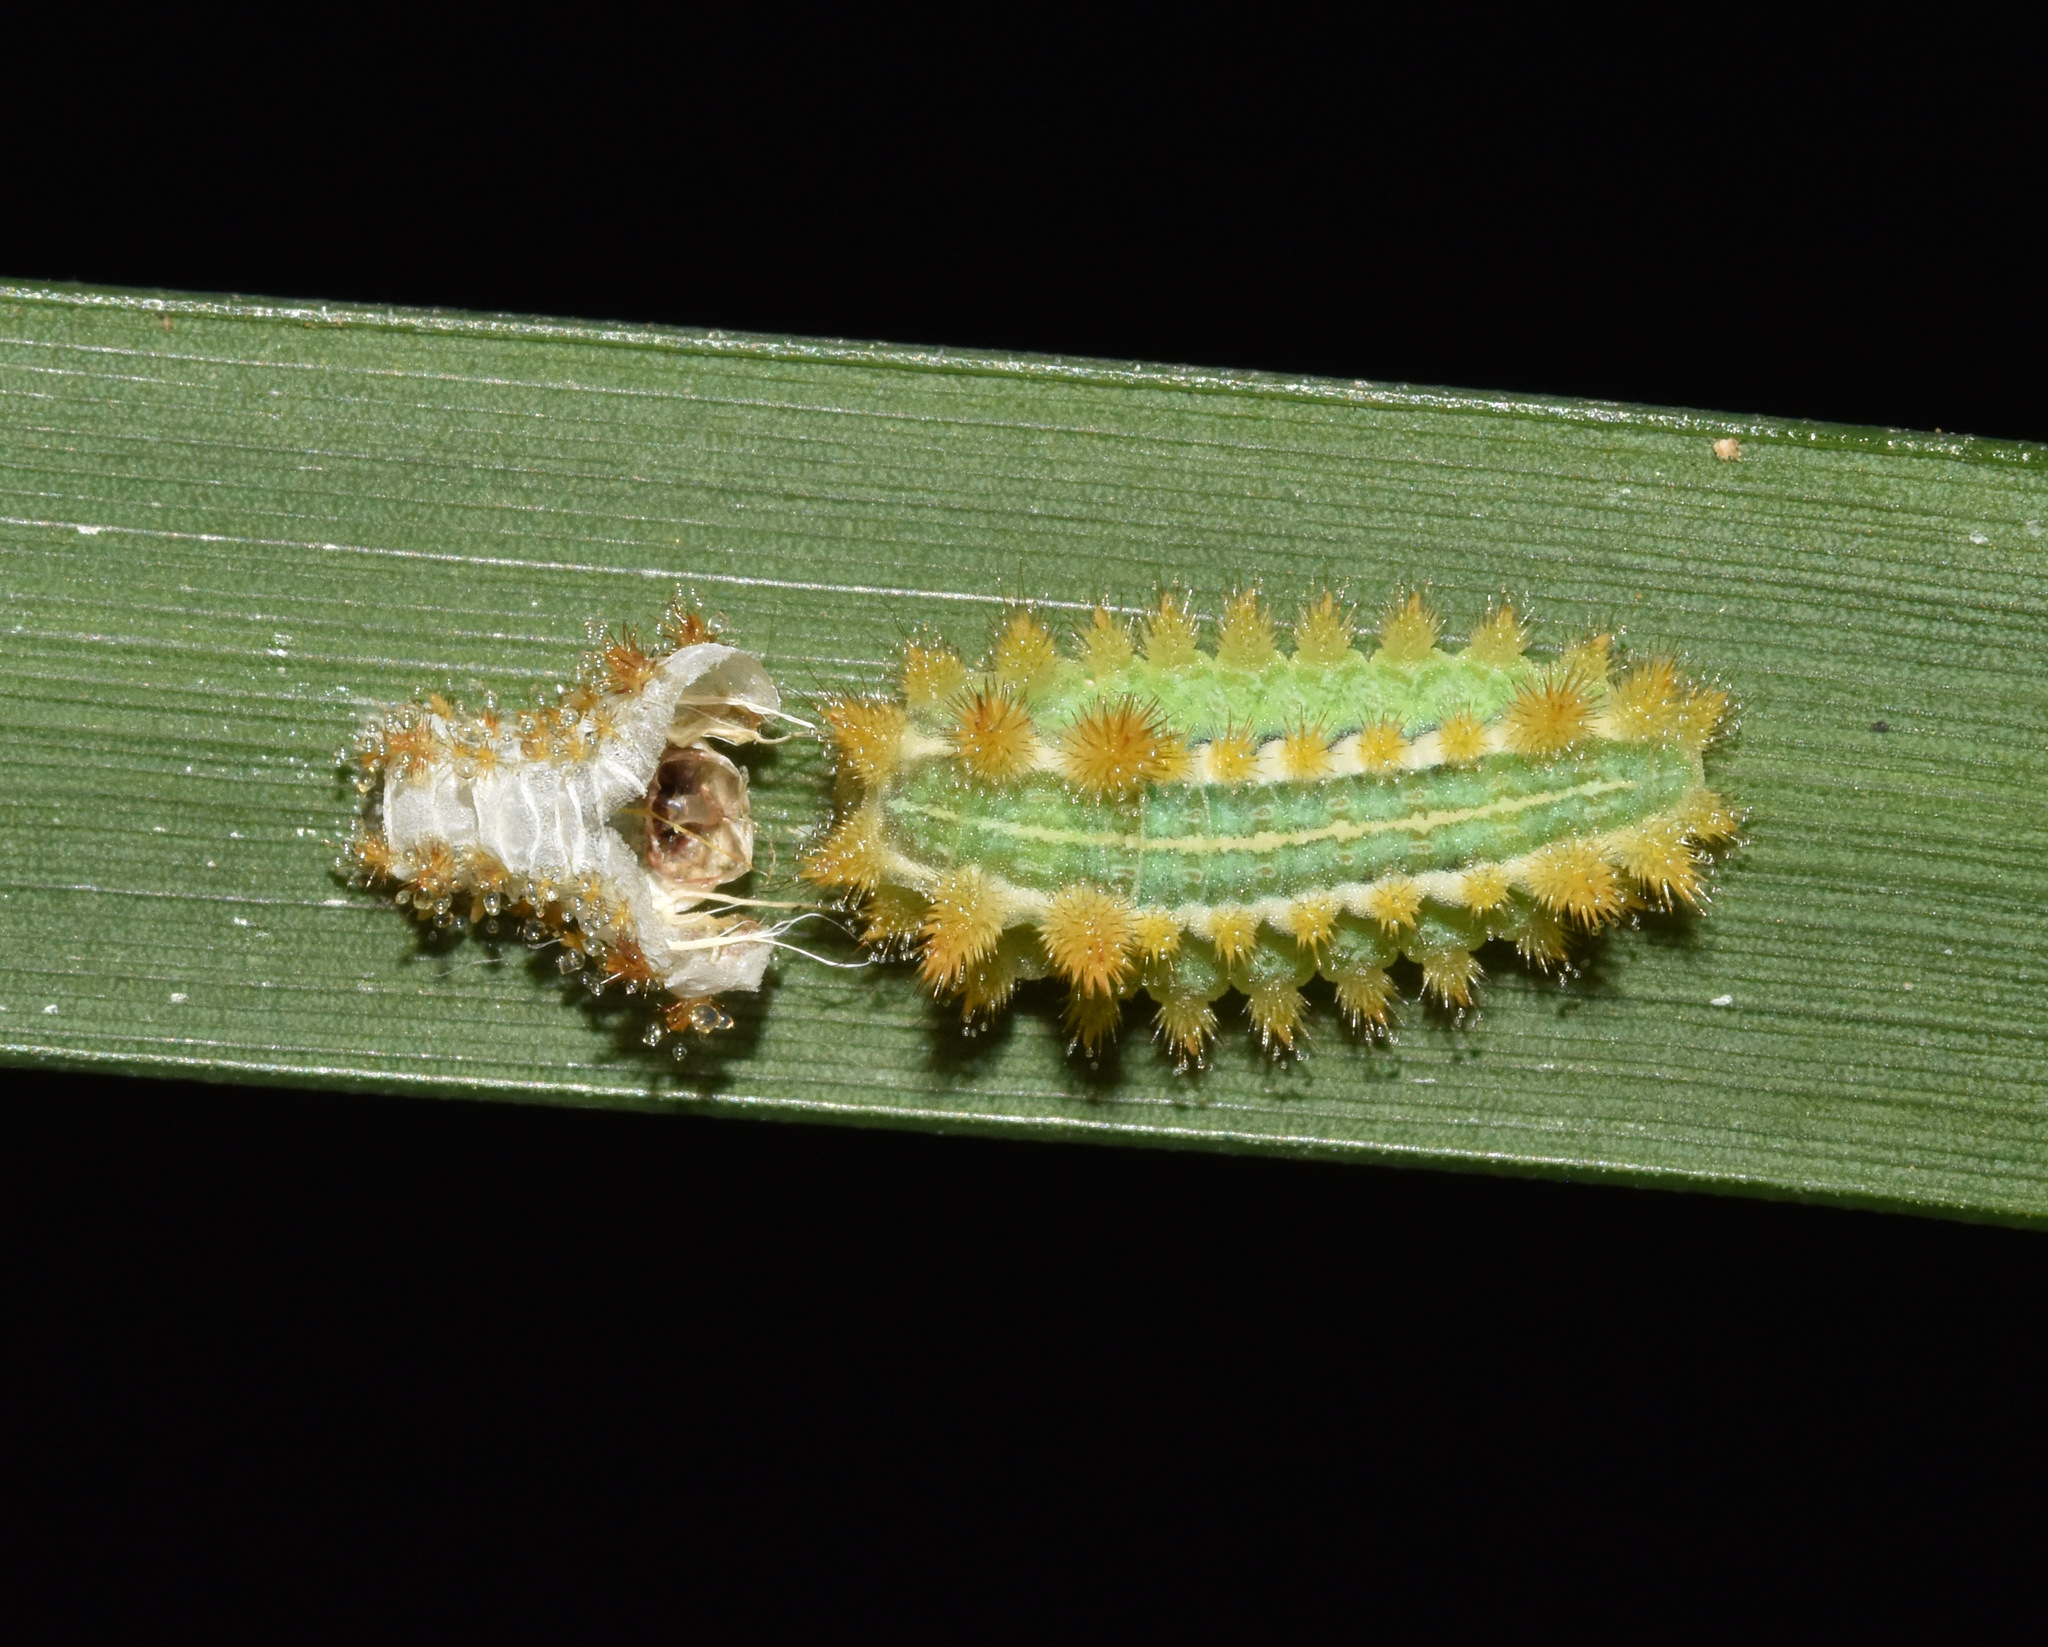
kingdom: Animalia
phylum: Arthropoda
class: Insecta
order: Lepidoptera
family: Limacodidae
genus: Omocenoides
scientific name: Omocenoides isophanes
